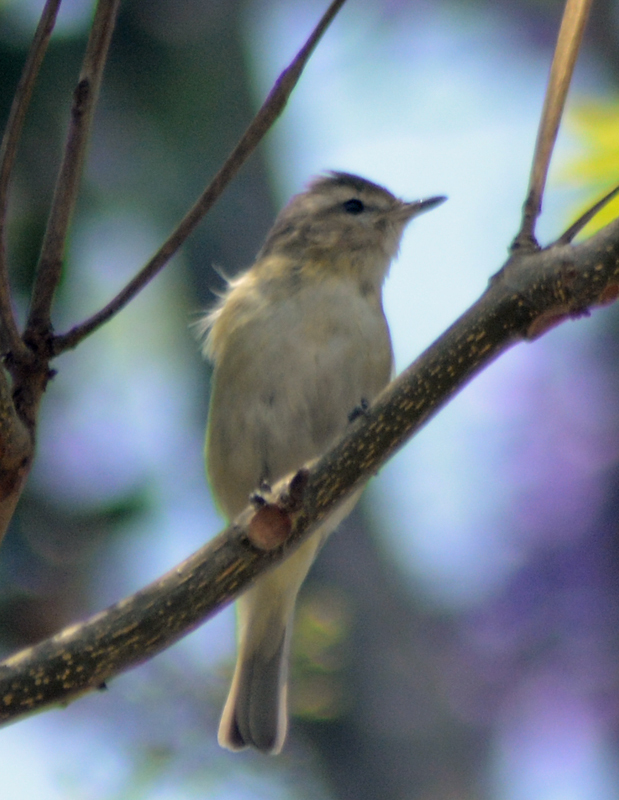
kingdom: Animalia
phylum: Chordata
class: Aves
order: Passeriformes
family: Vireonidae
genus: Vireo
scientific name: Vireo gilvus
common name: Warbling vireo
